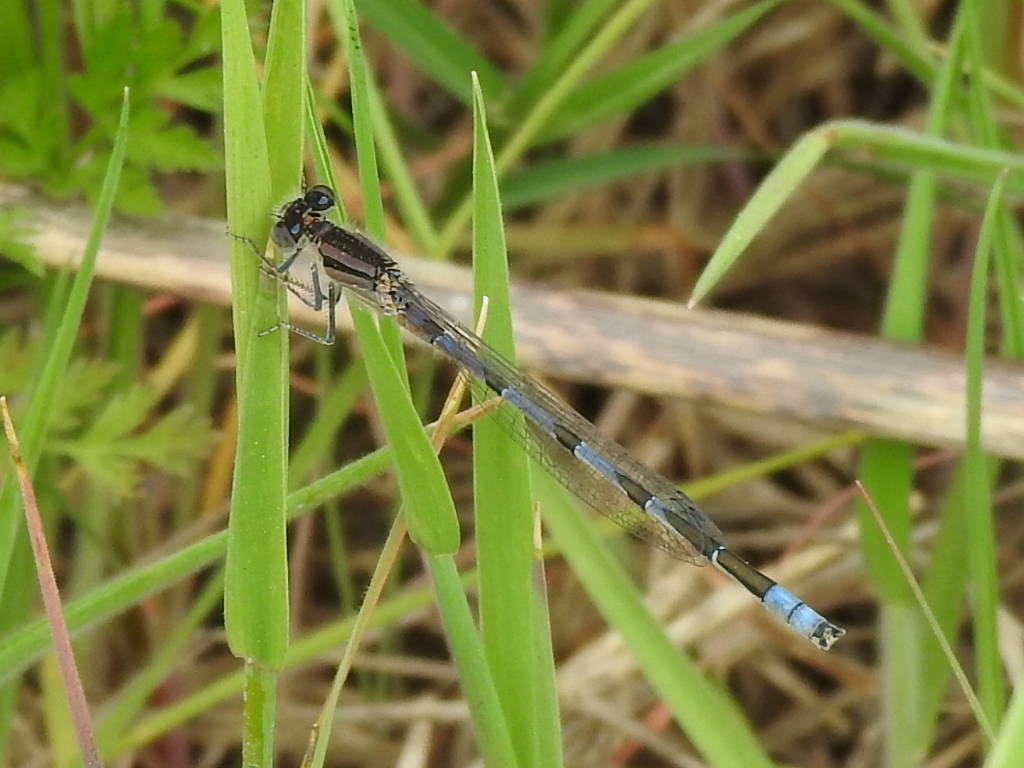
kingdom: Animalia
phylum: Arthropoda
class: Insecta
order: Odonata
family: Coenagrionidae
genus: Enallagma
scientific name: Enallagma civile
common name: Damselfly
